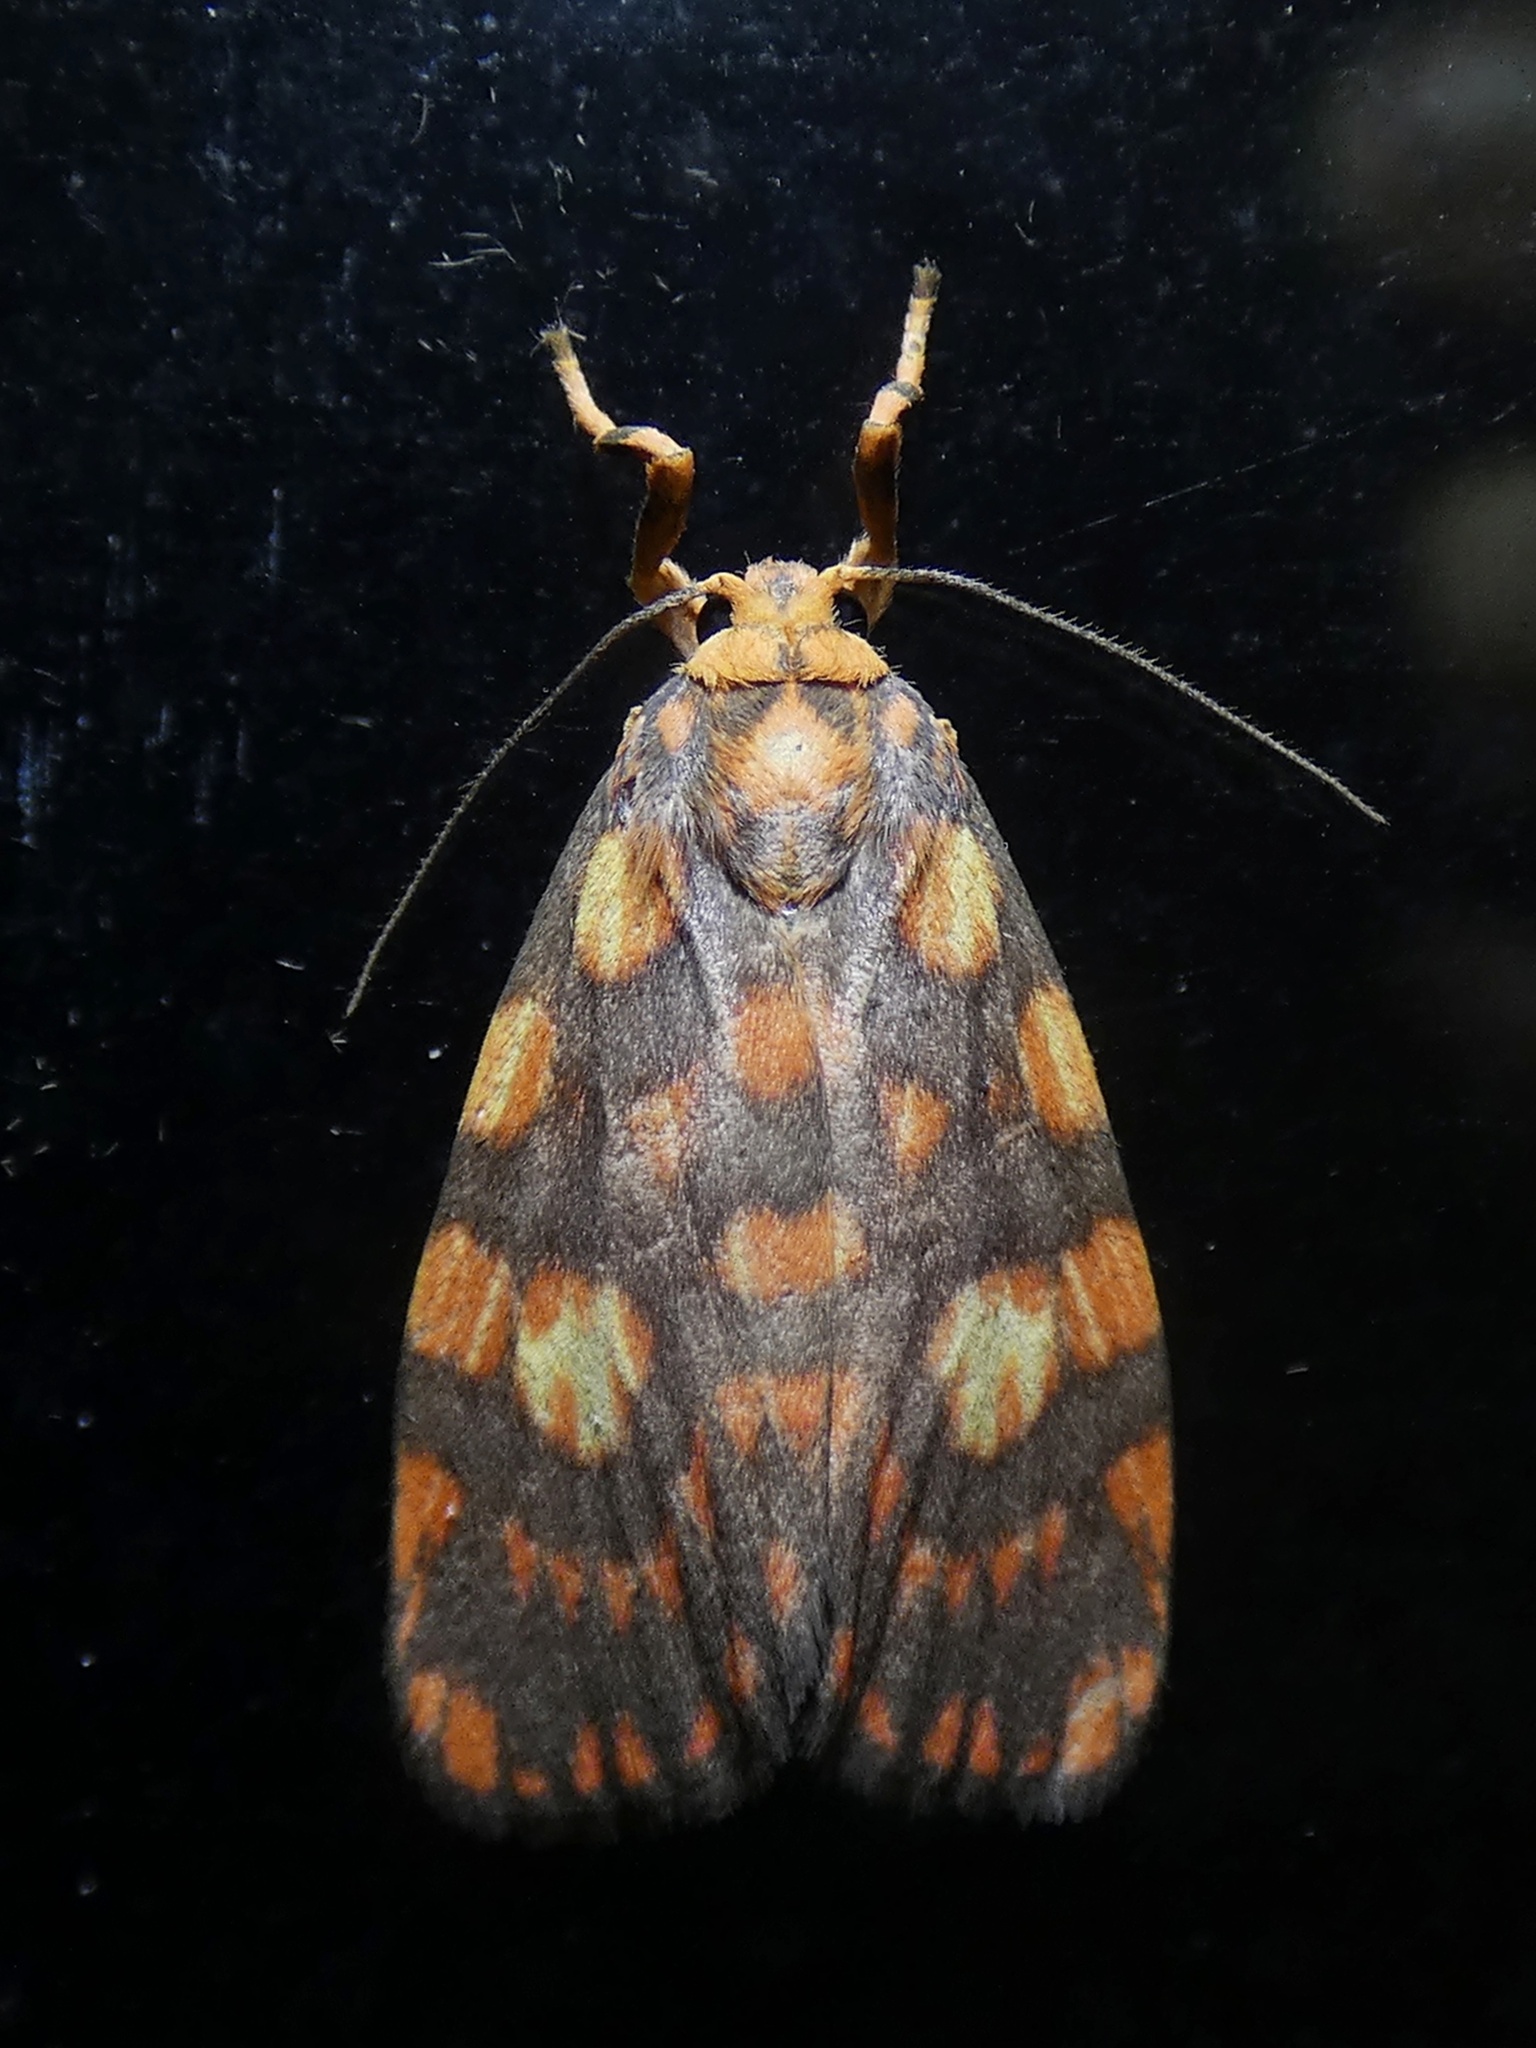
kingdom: Animalia
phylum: Arthropoda
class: Insecta
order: Lepidoptera
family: Erebidae
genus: Cyme
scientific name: Cyme reticulata
